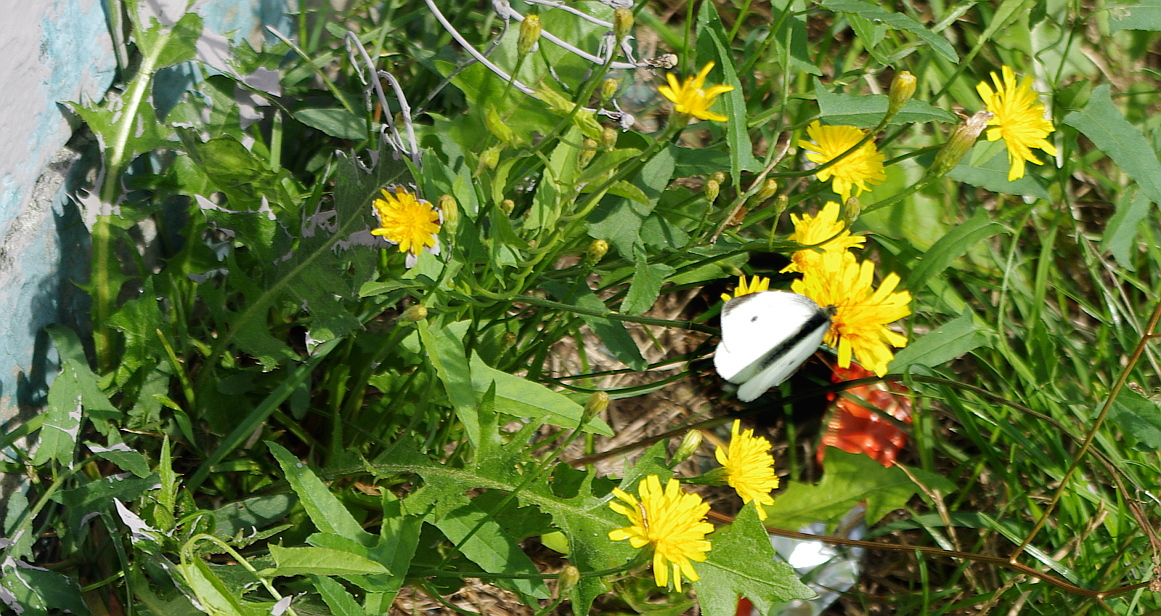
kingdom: Animalia
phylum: Arthropoda
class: Insecta
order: Lepidoptera
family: Pieridae
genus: Pieris
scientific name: Pieris rapae
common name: Small white
